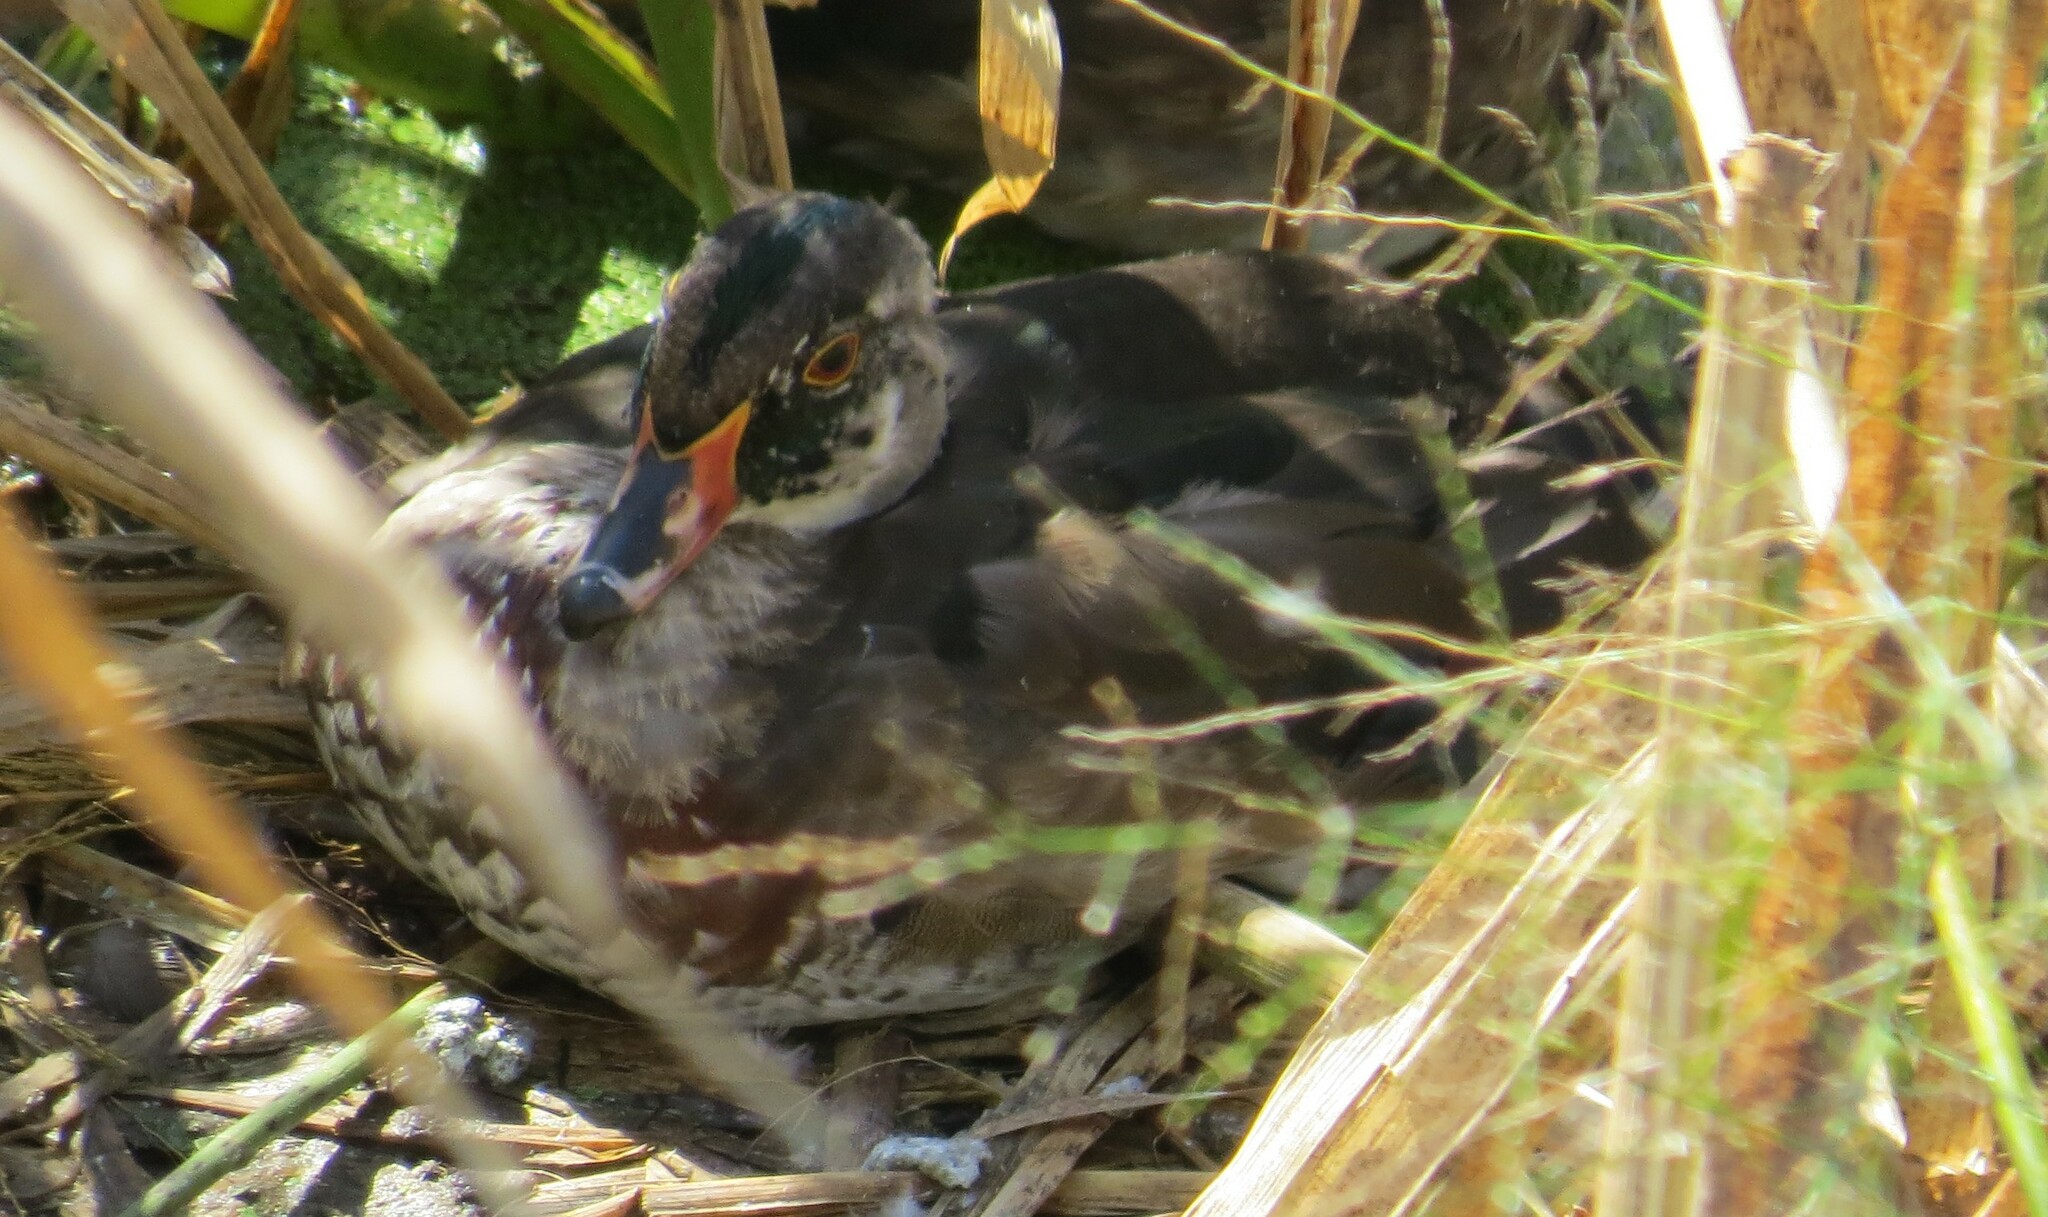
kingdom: Animalia
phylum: Chordata
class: Aves
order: Anseriformes
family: Anatidae
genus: Aix
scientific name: Aix sponsa
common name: Wood duck
